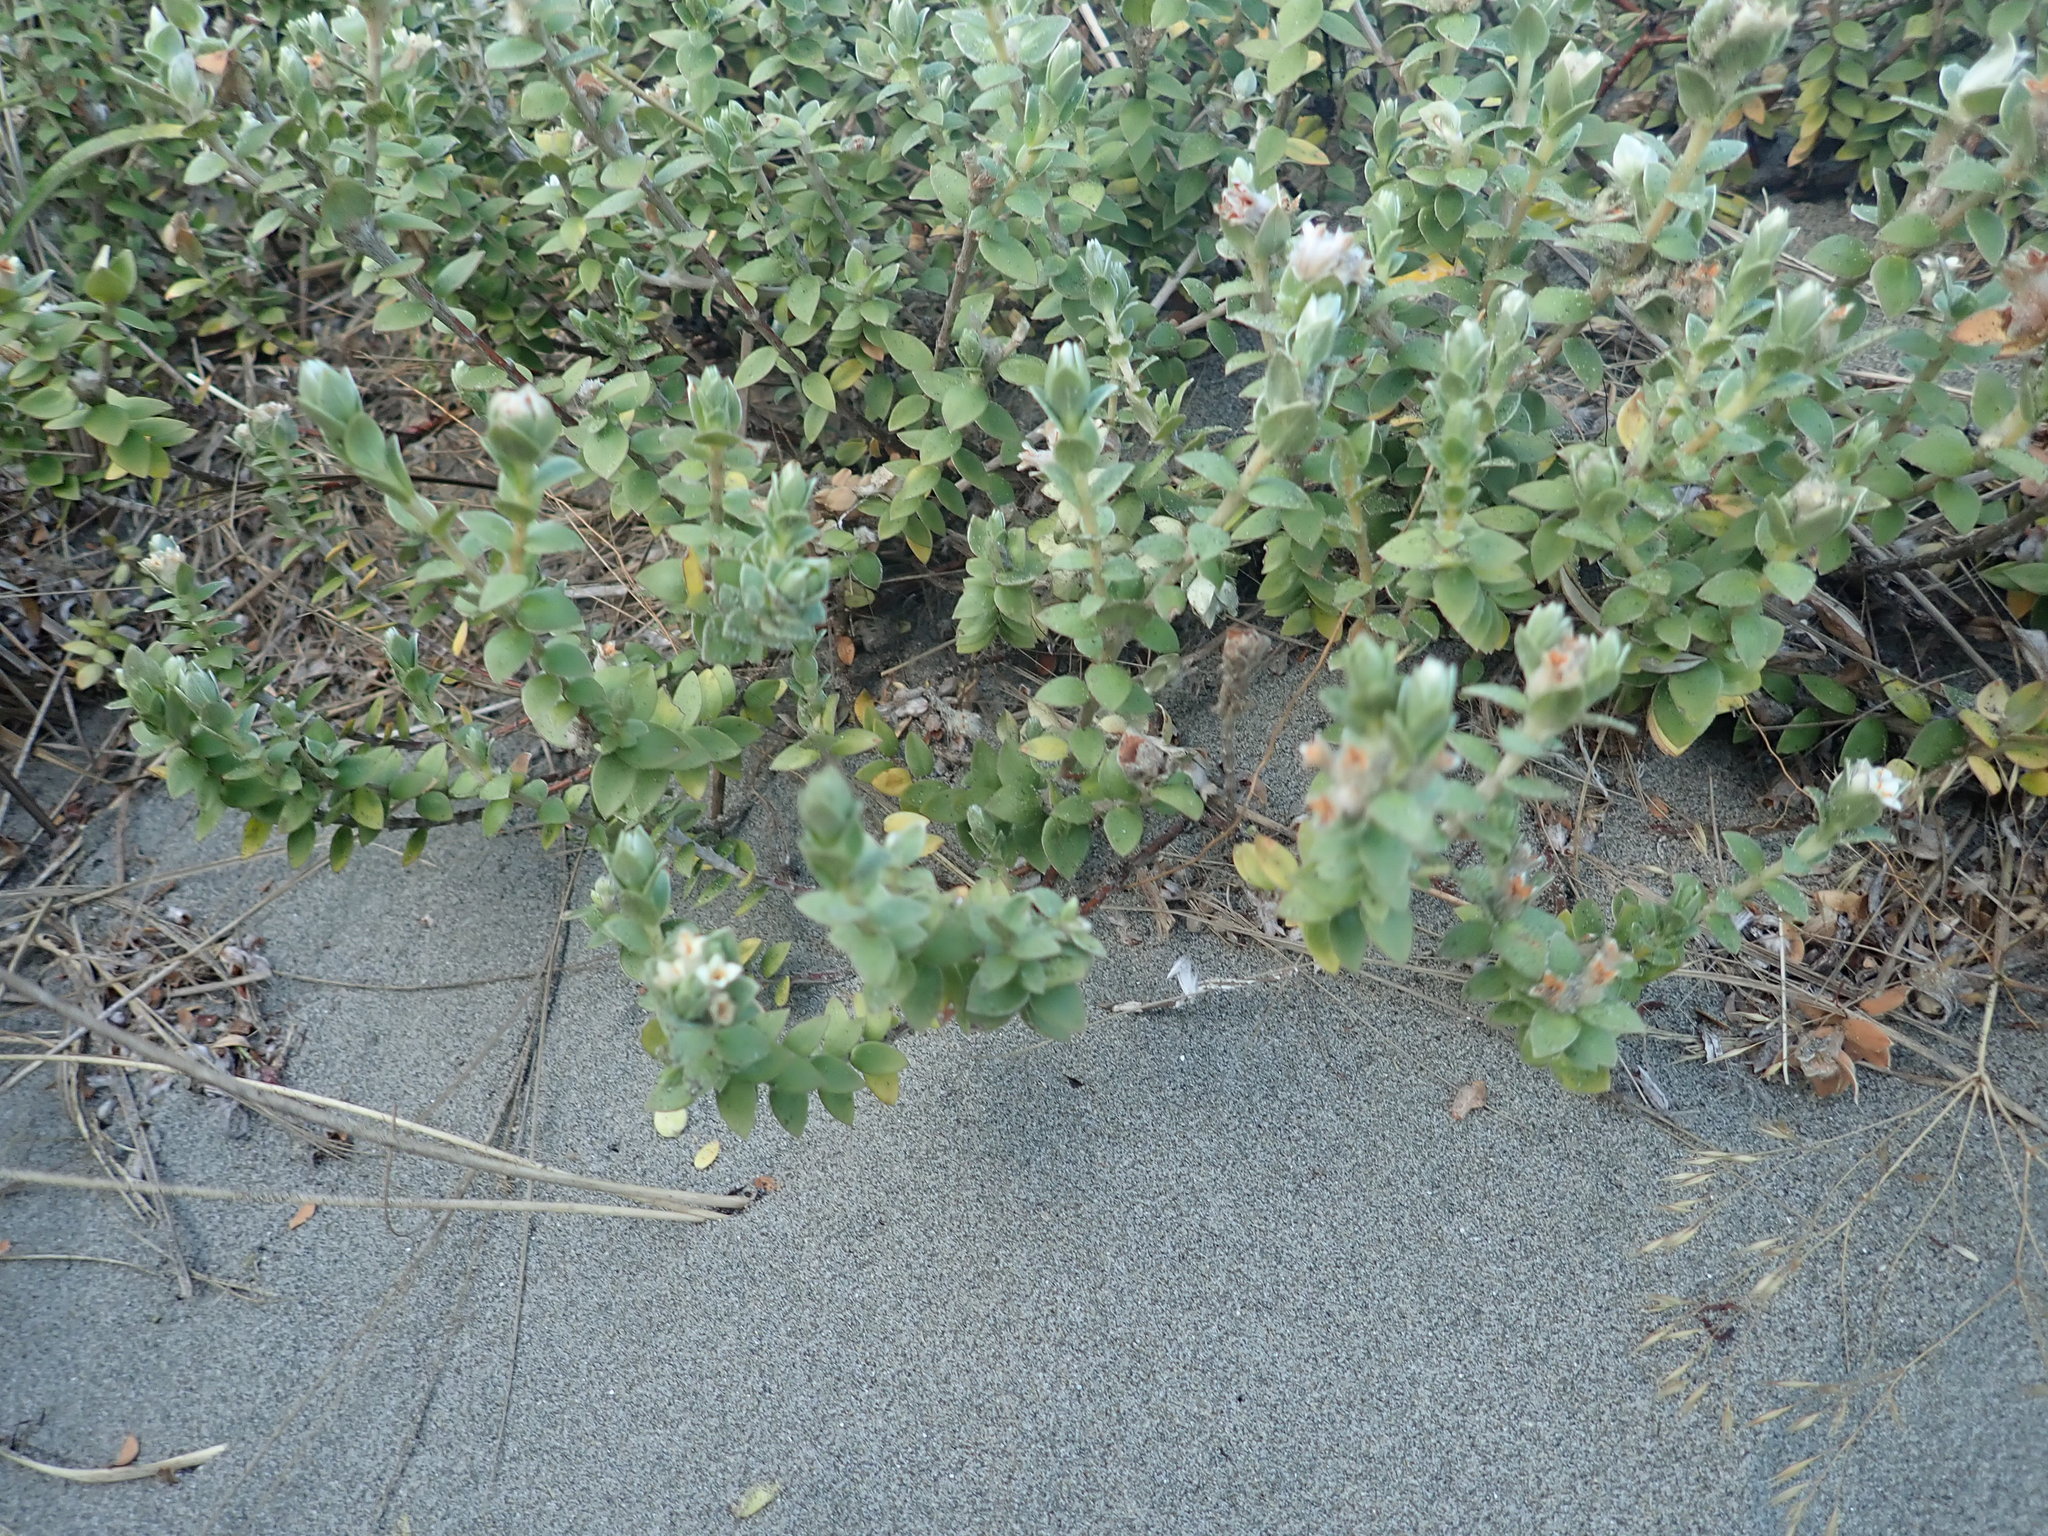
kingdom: Plantae
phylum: Tracheophyta
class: Magnoliopsida
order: Malvales
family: Thymelaeaceae
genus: Pimelea
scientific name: Pimelea villosa
